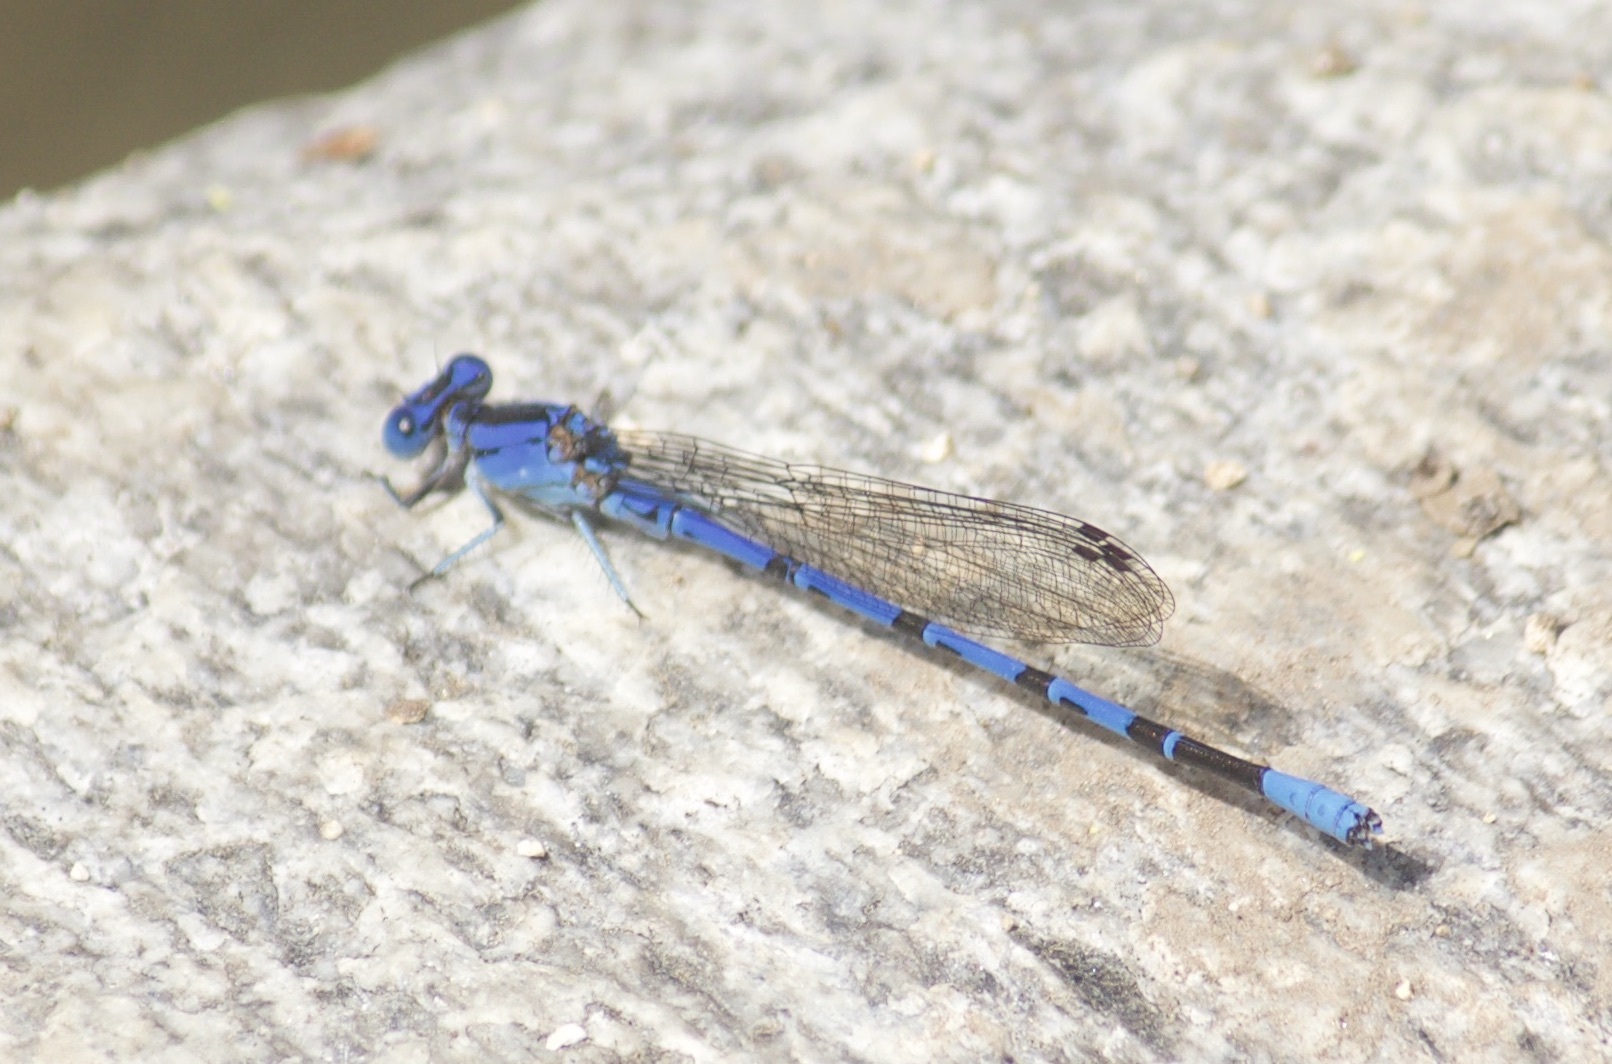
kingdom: Animalia
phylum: Arthropoda
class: Insecta
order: Odonata
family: Coenagrionidae
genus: Argia
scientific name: Argia vivida
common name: Vivid dancer
